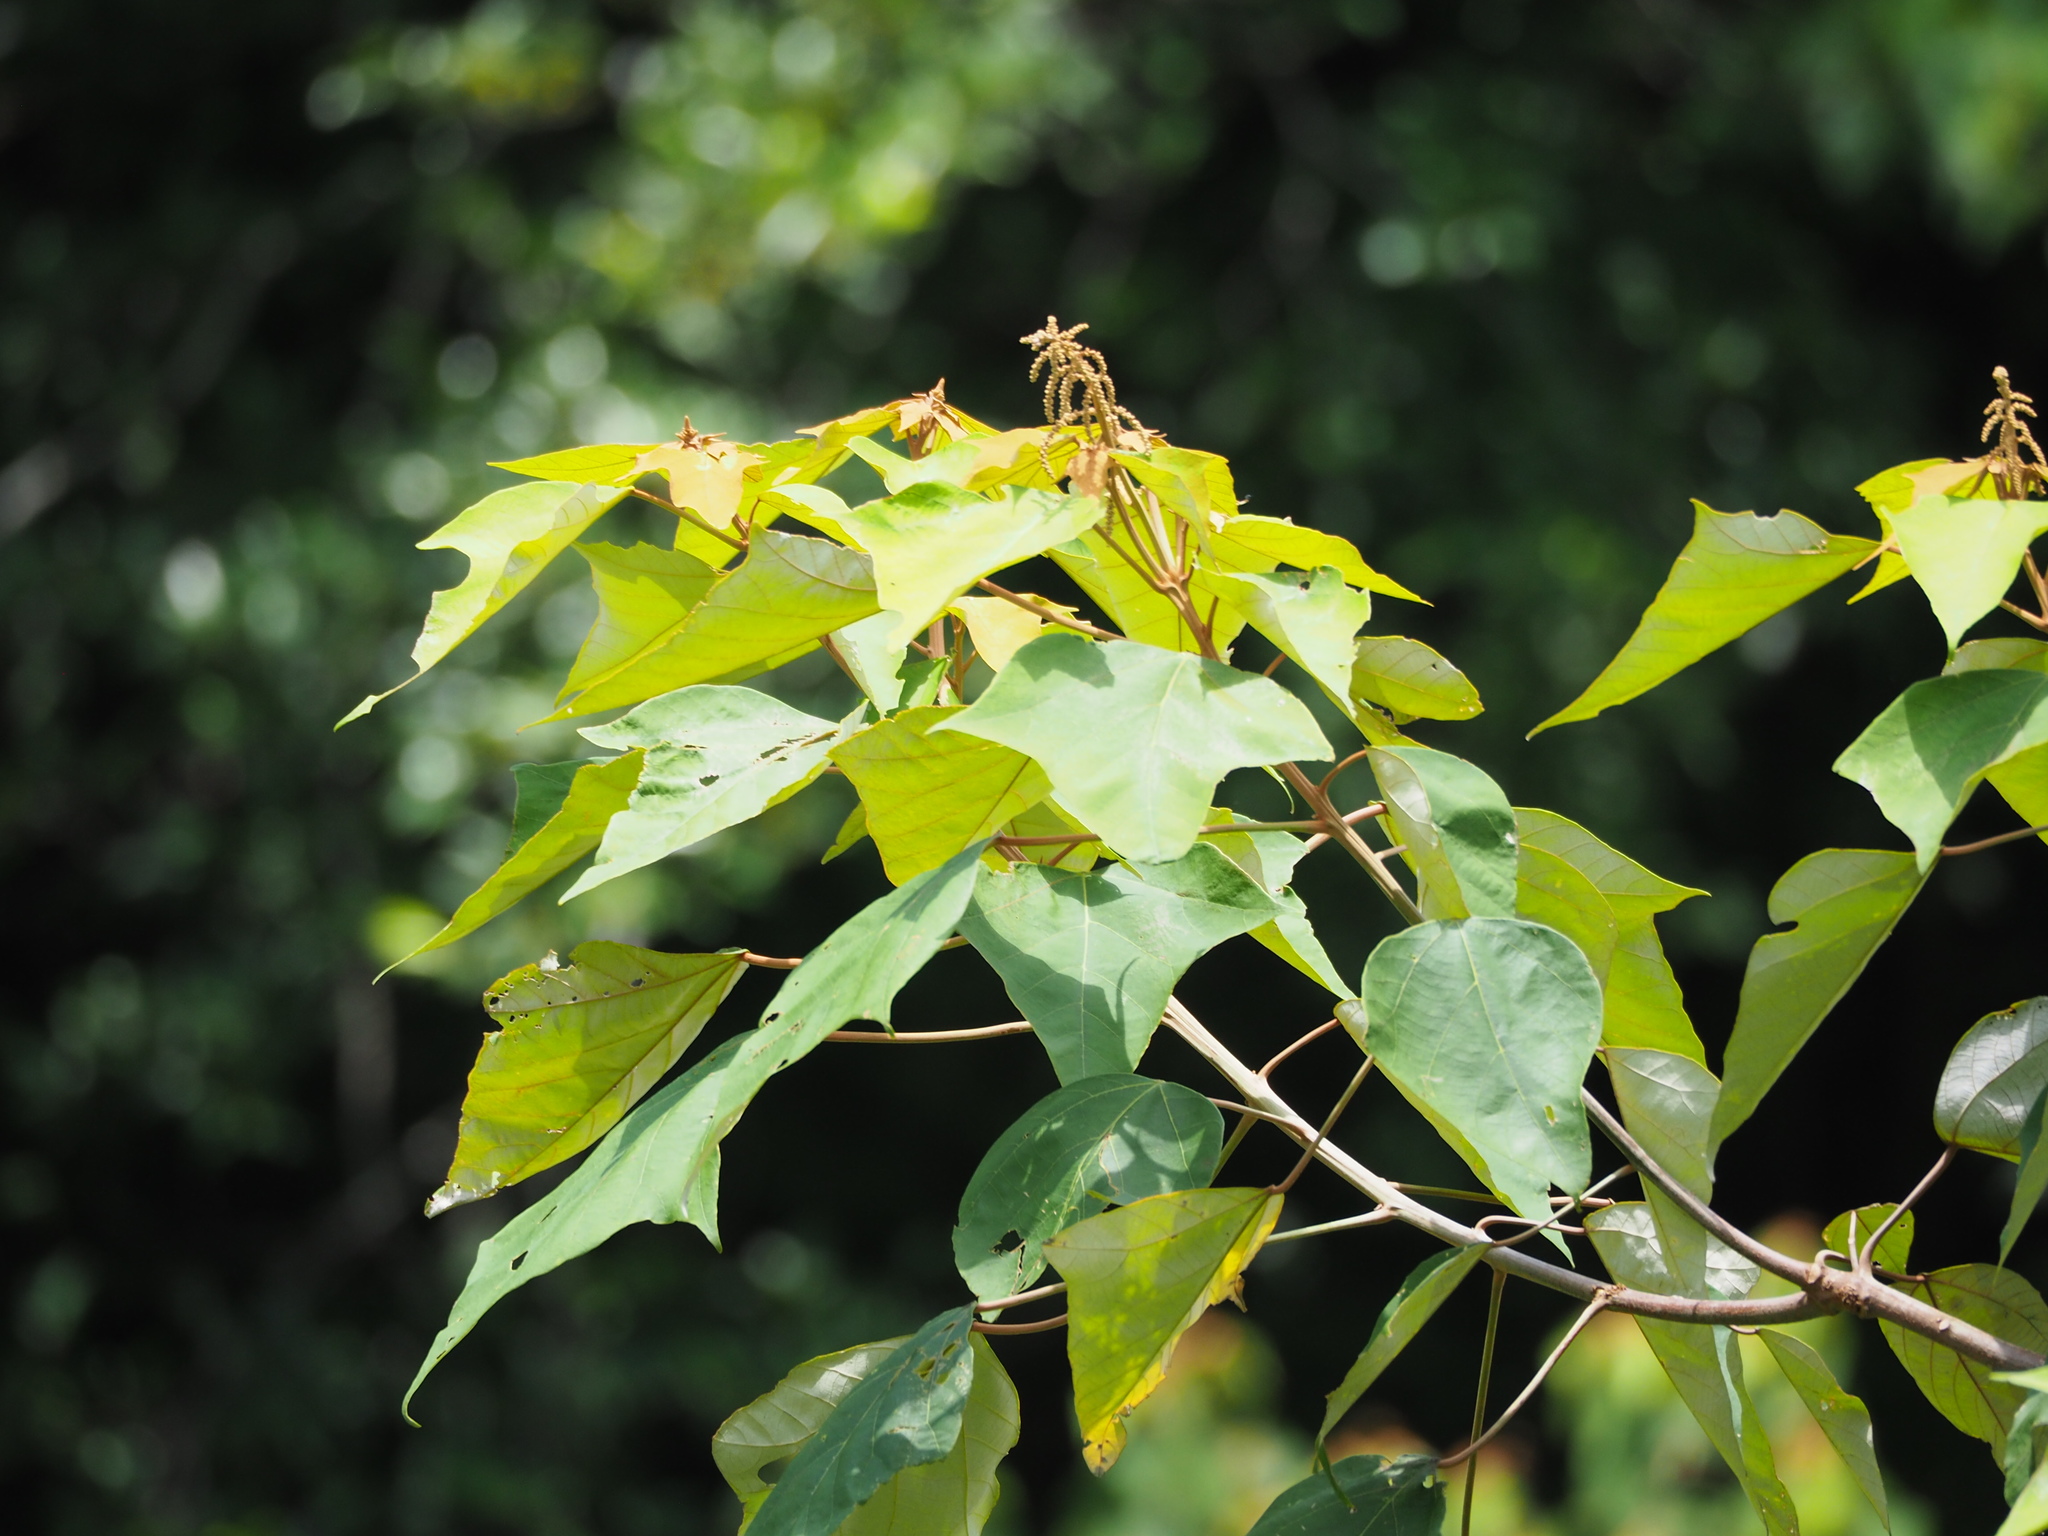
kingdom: Plantae
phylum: Tracheophyta
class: Magnoliopsida
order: Malpighiales
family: Euphorbiaceae
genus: Mallotus
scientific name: Mallotus paniculatus
